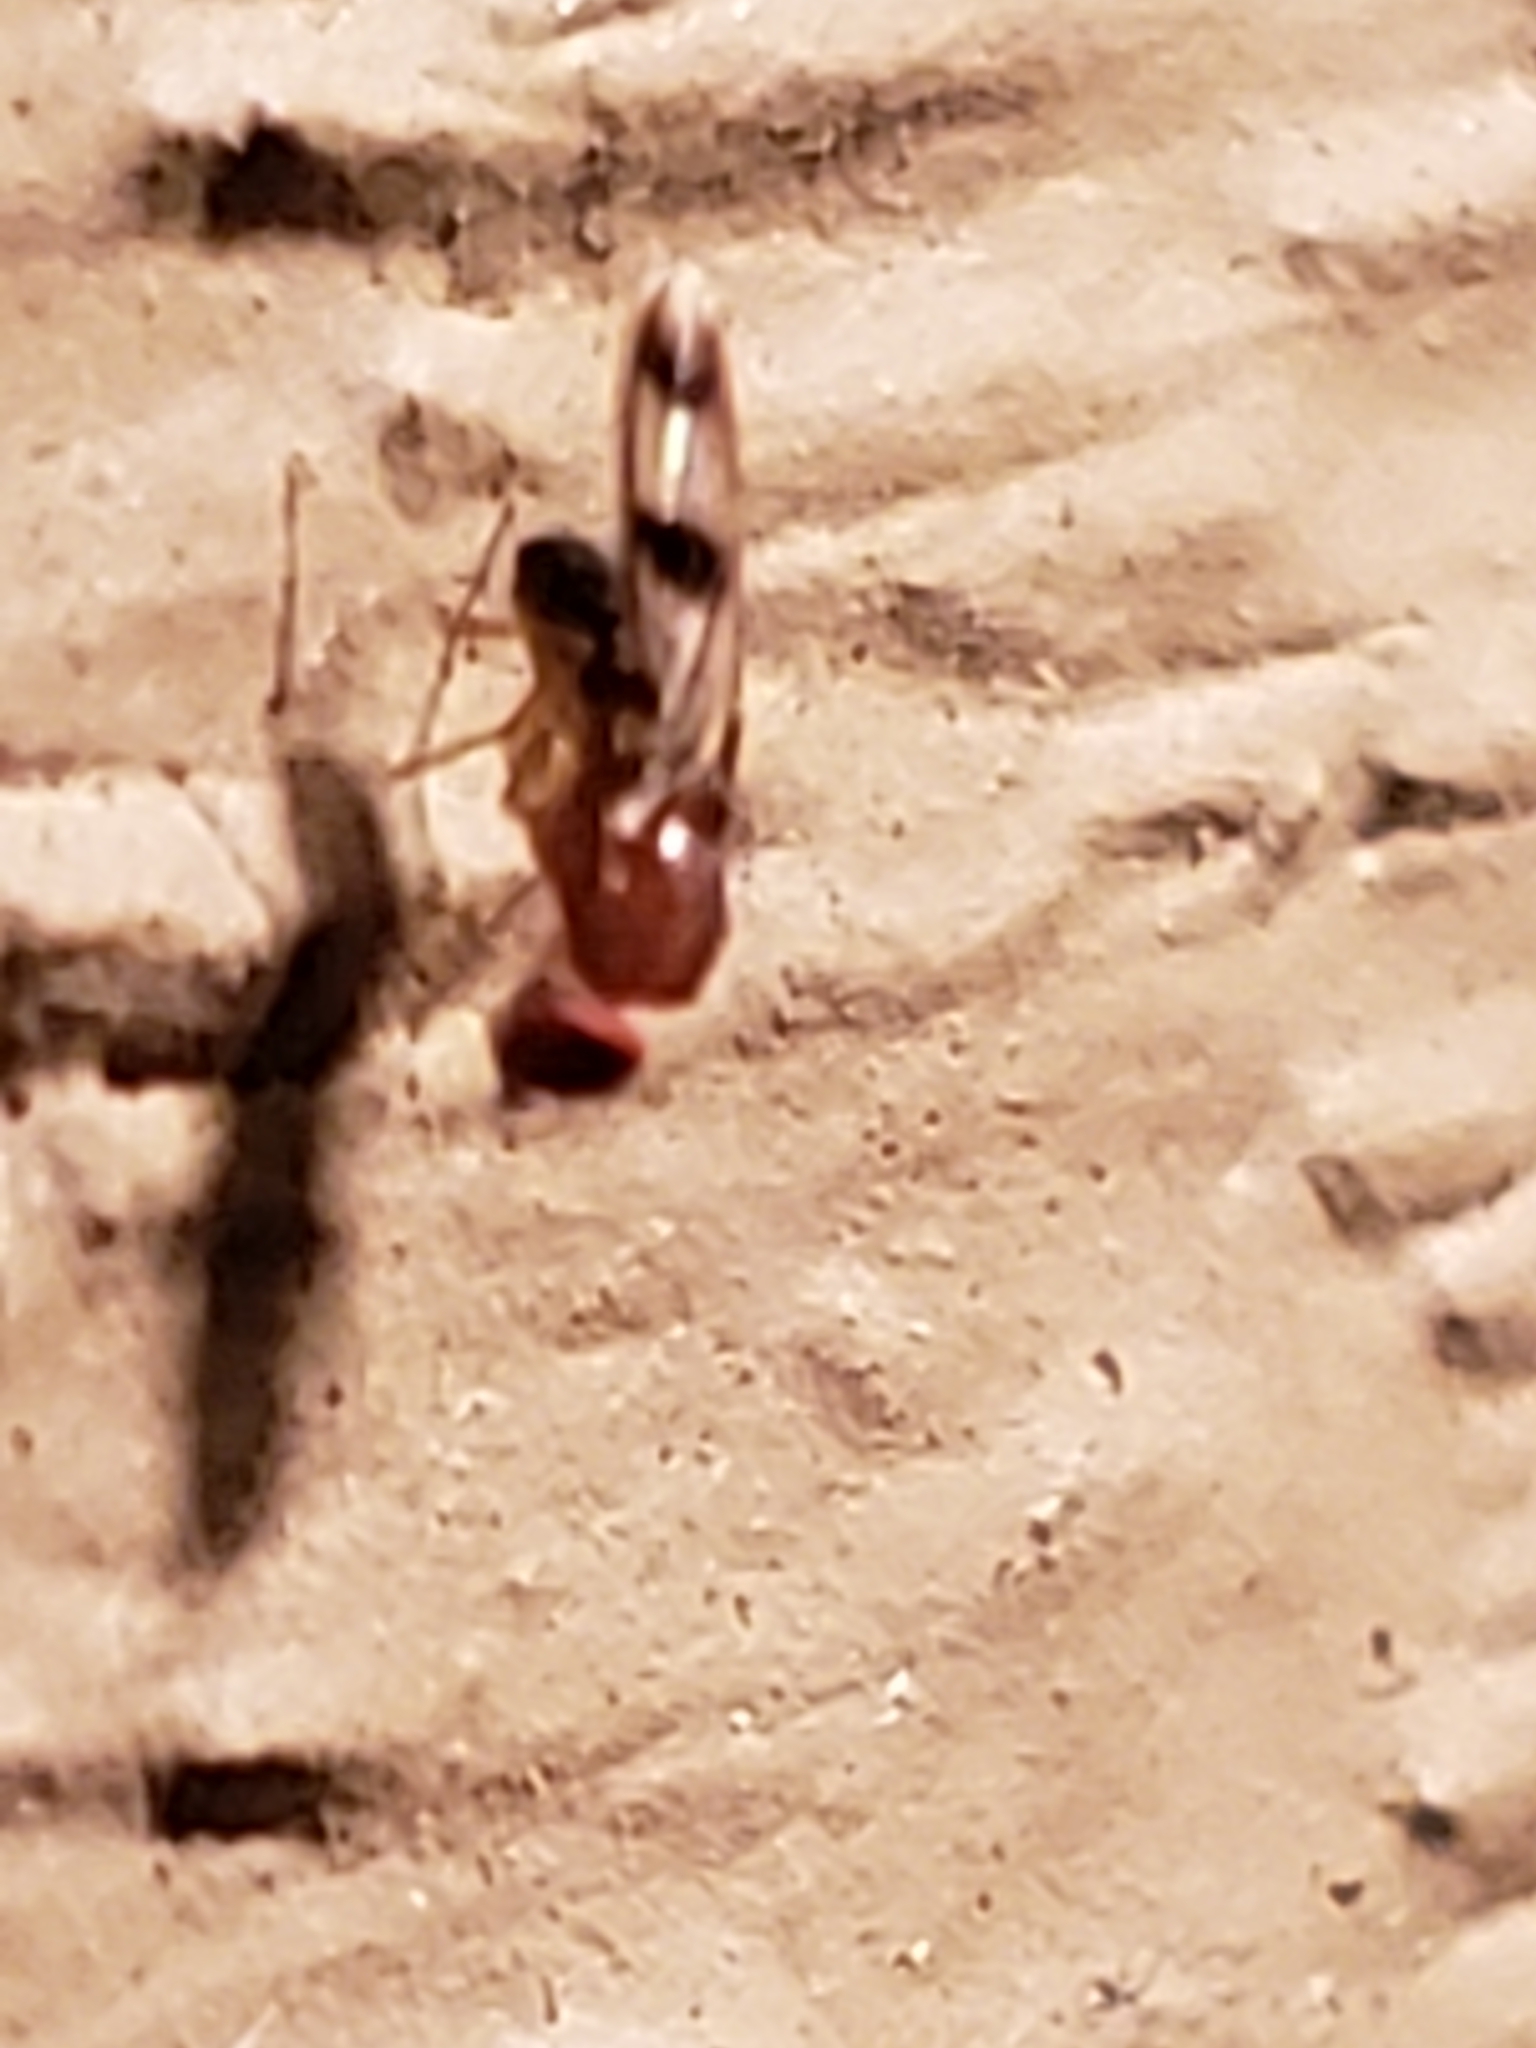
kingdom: Animalia
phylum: Arthropoda
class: Insecta
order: Diptera
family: Drosophilidae
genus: Chymomyza
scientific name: Chymomyza amoena
